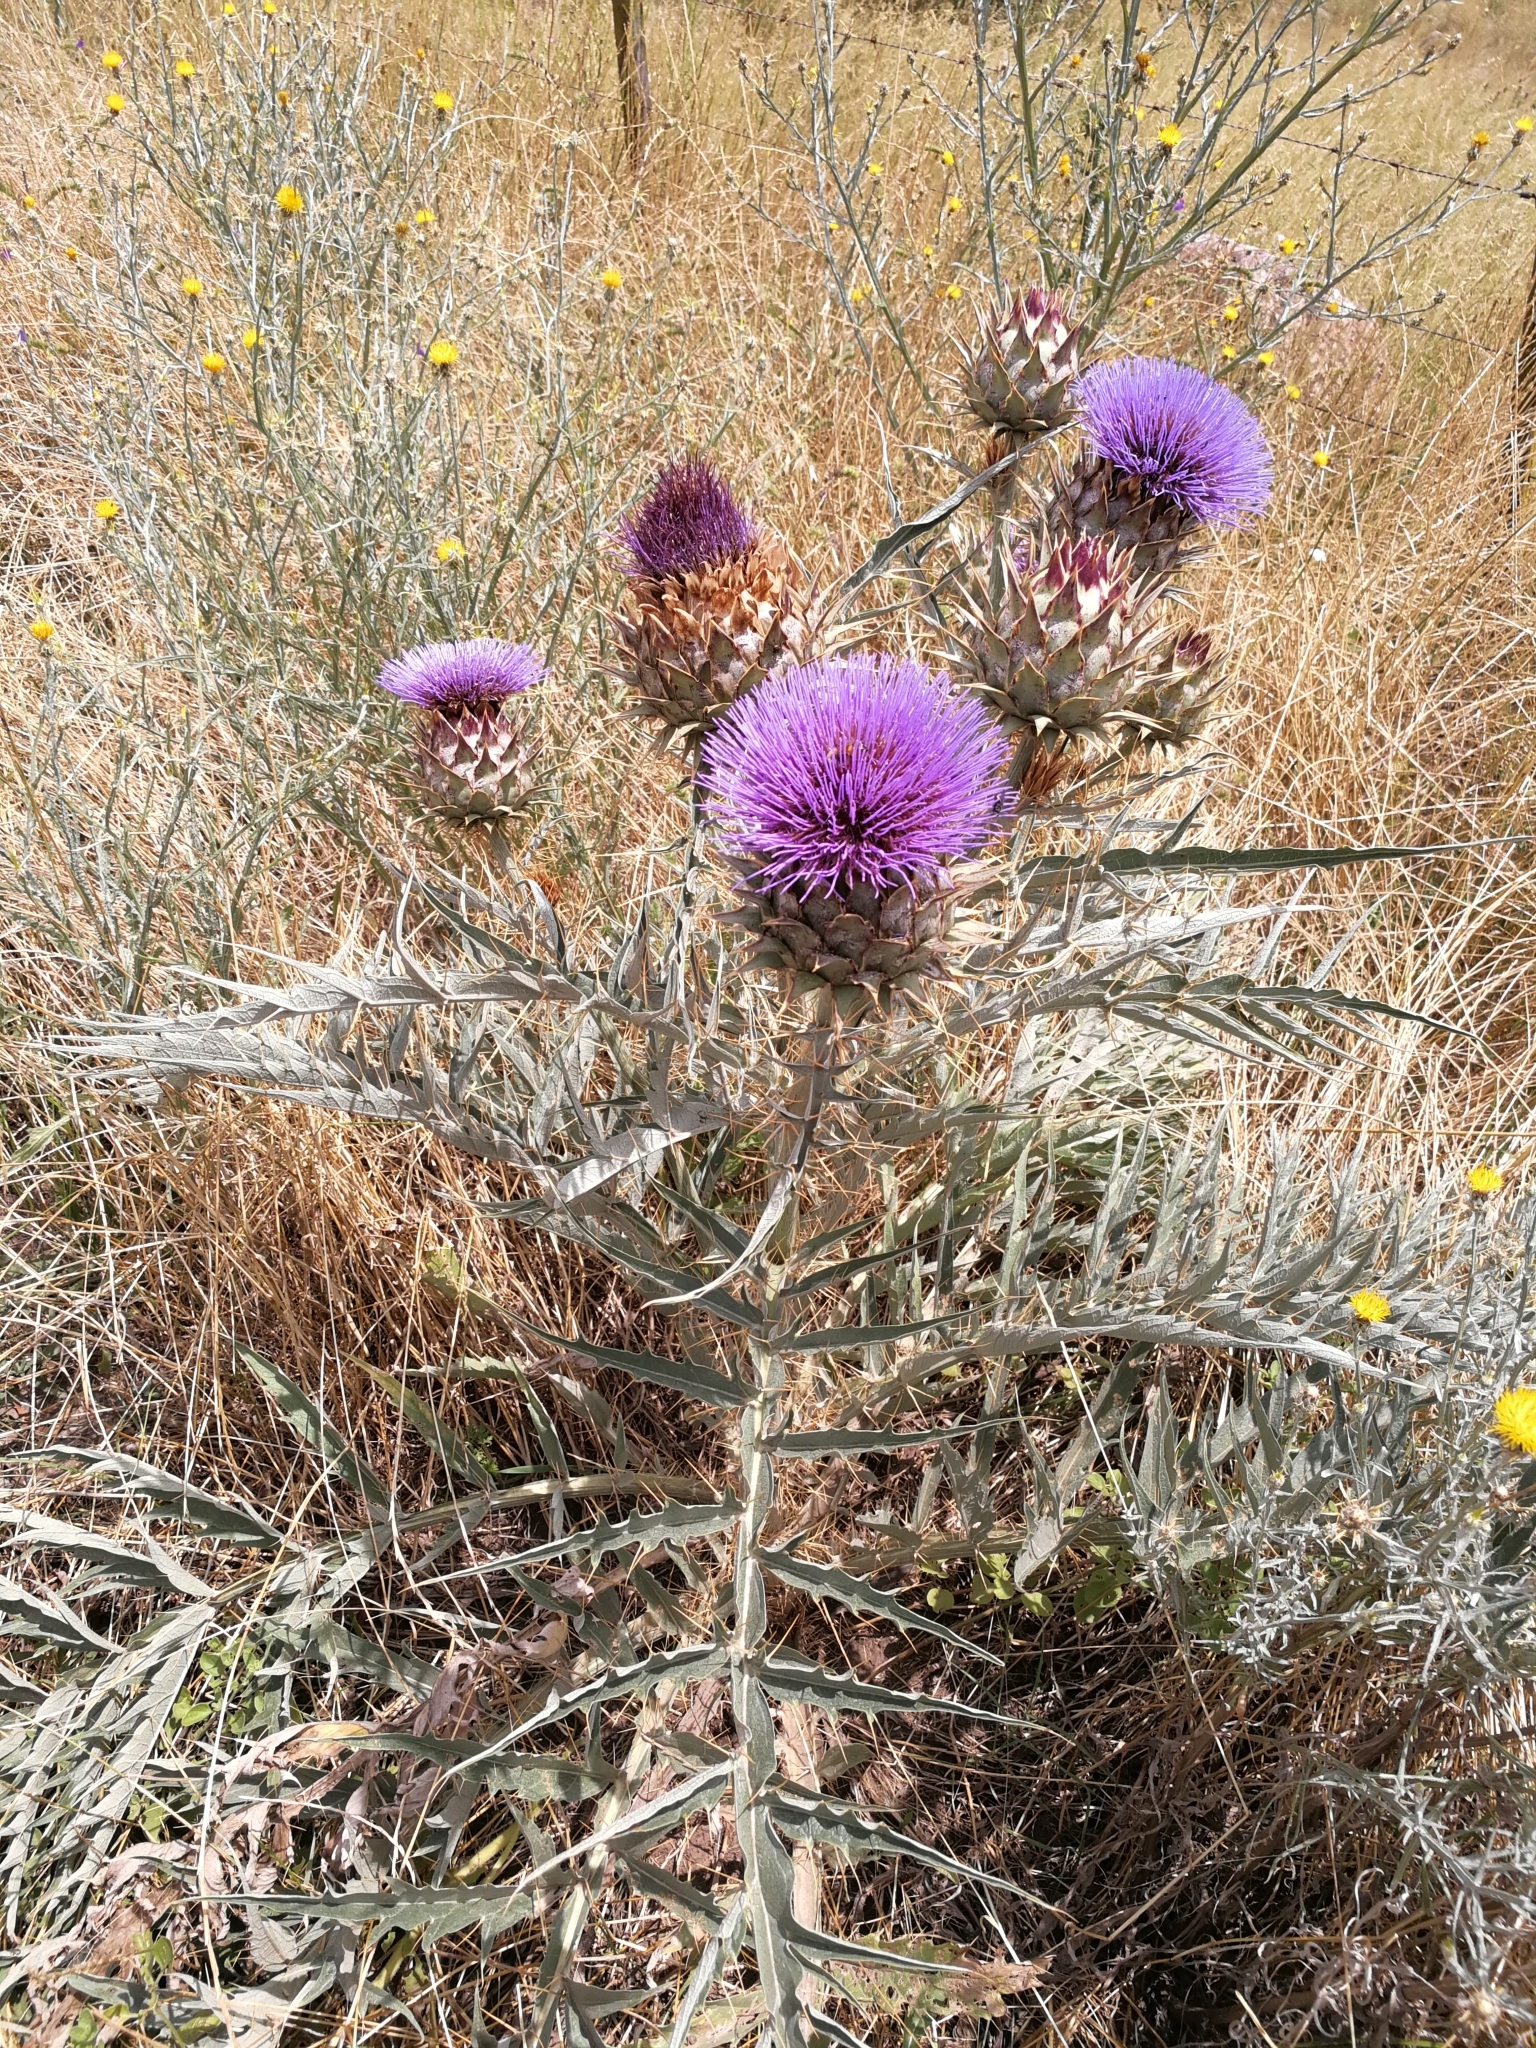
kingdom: Plantae
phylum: Tracheophyta
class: Magnoliopsida
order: Asterales
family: Asteraceae
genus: Cynara
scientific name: Cynara cardunculus
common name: Globe artichoke
